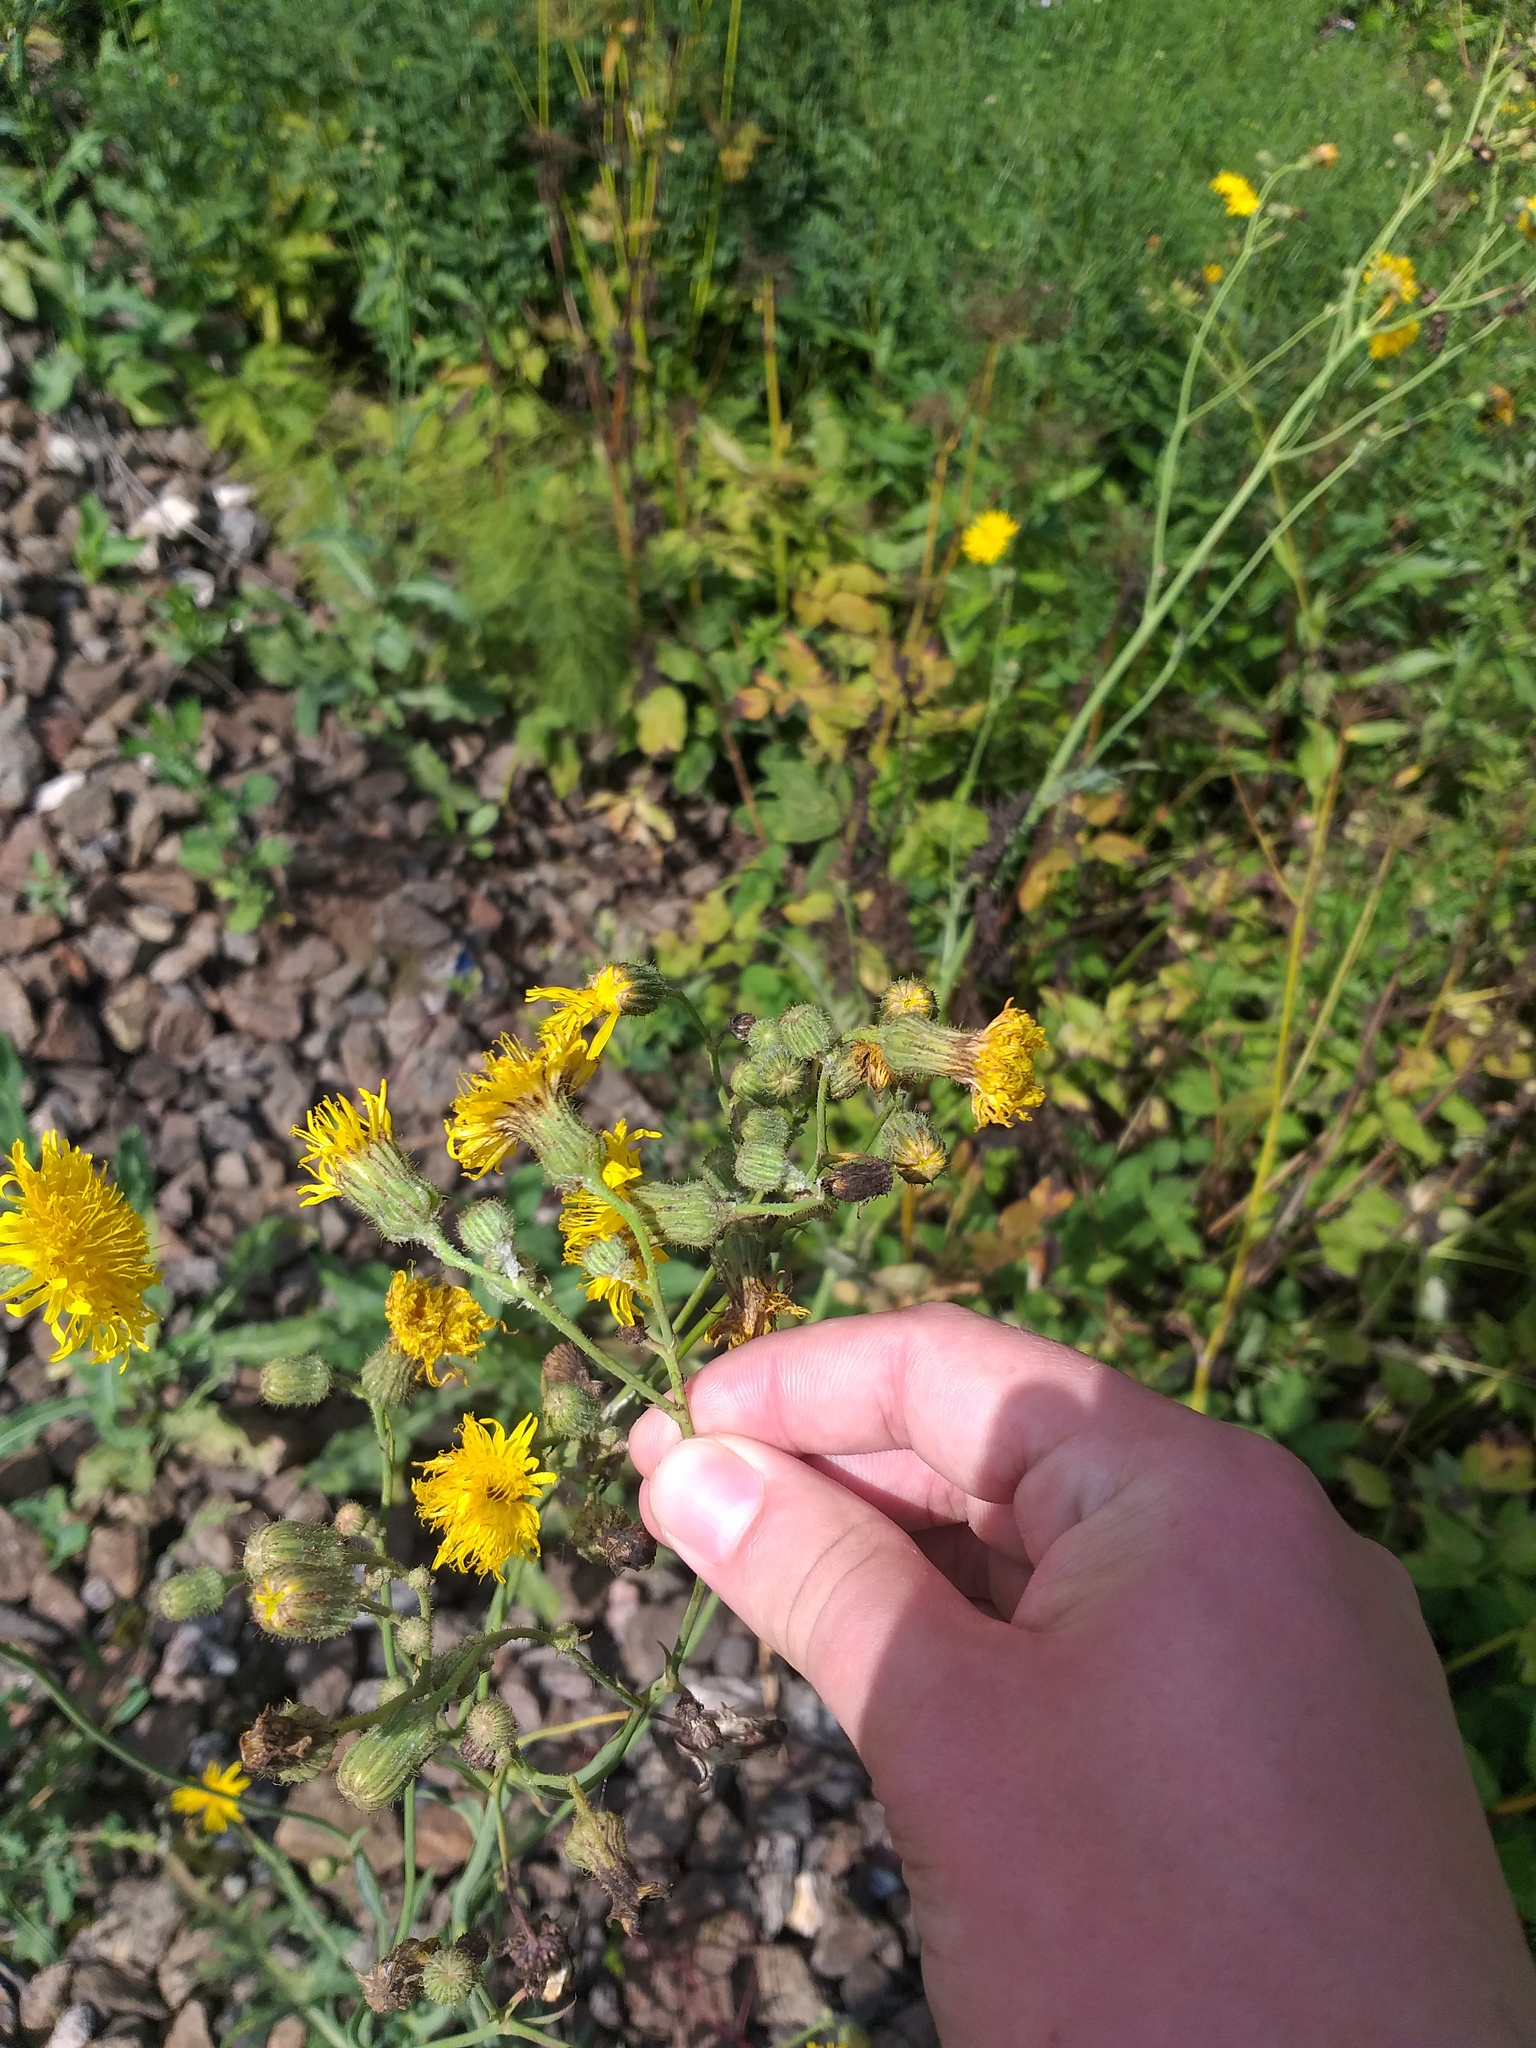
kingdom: Plantae
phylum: Tracheophyta
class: Magnoliopsida
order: Asterales
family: Asteraceae
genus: Sonchus
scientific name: Sonchus arvensis
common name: Perennial sow-thistle
